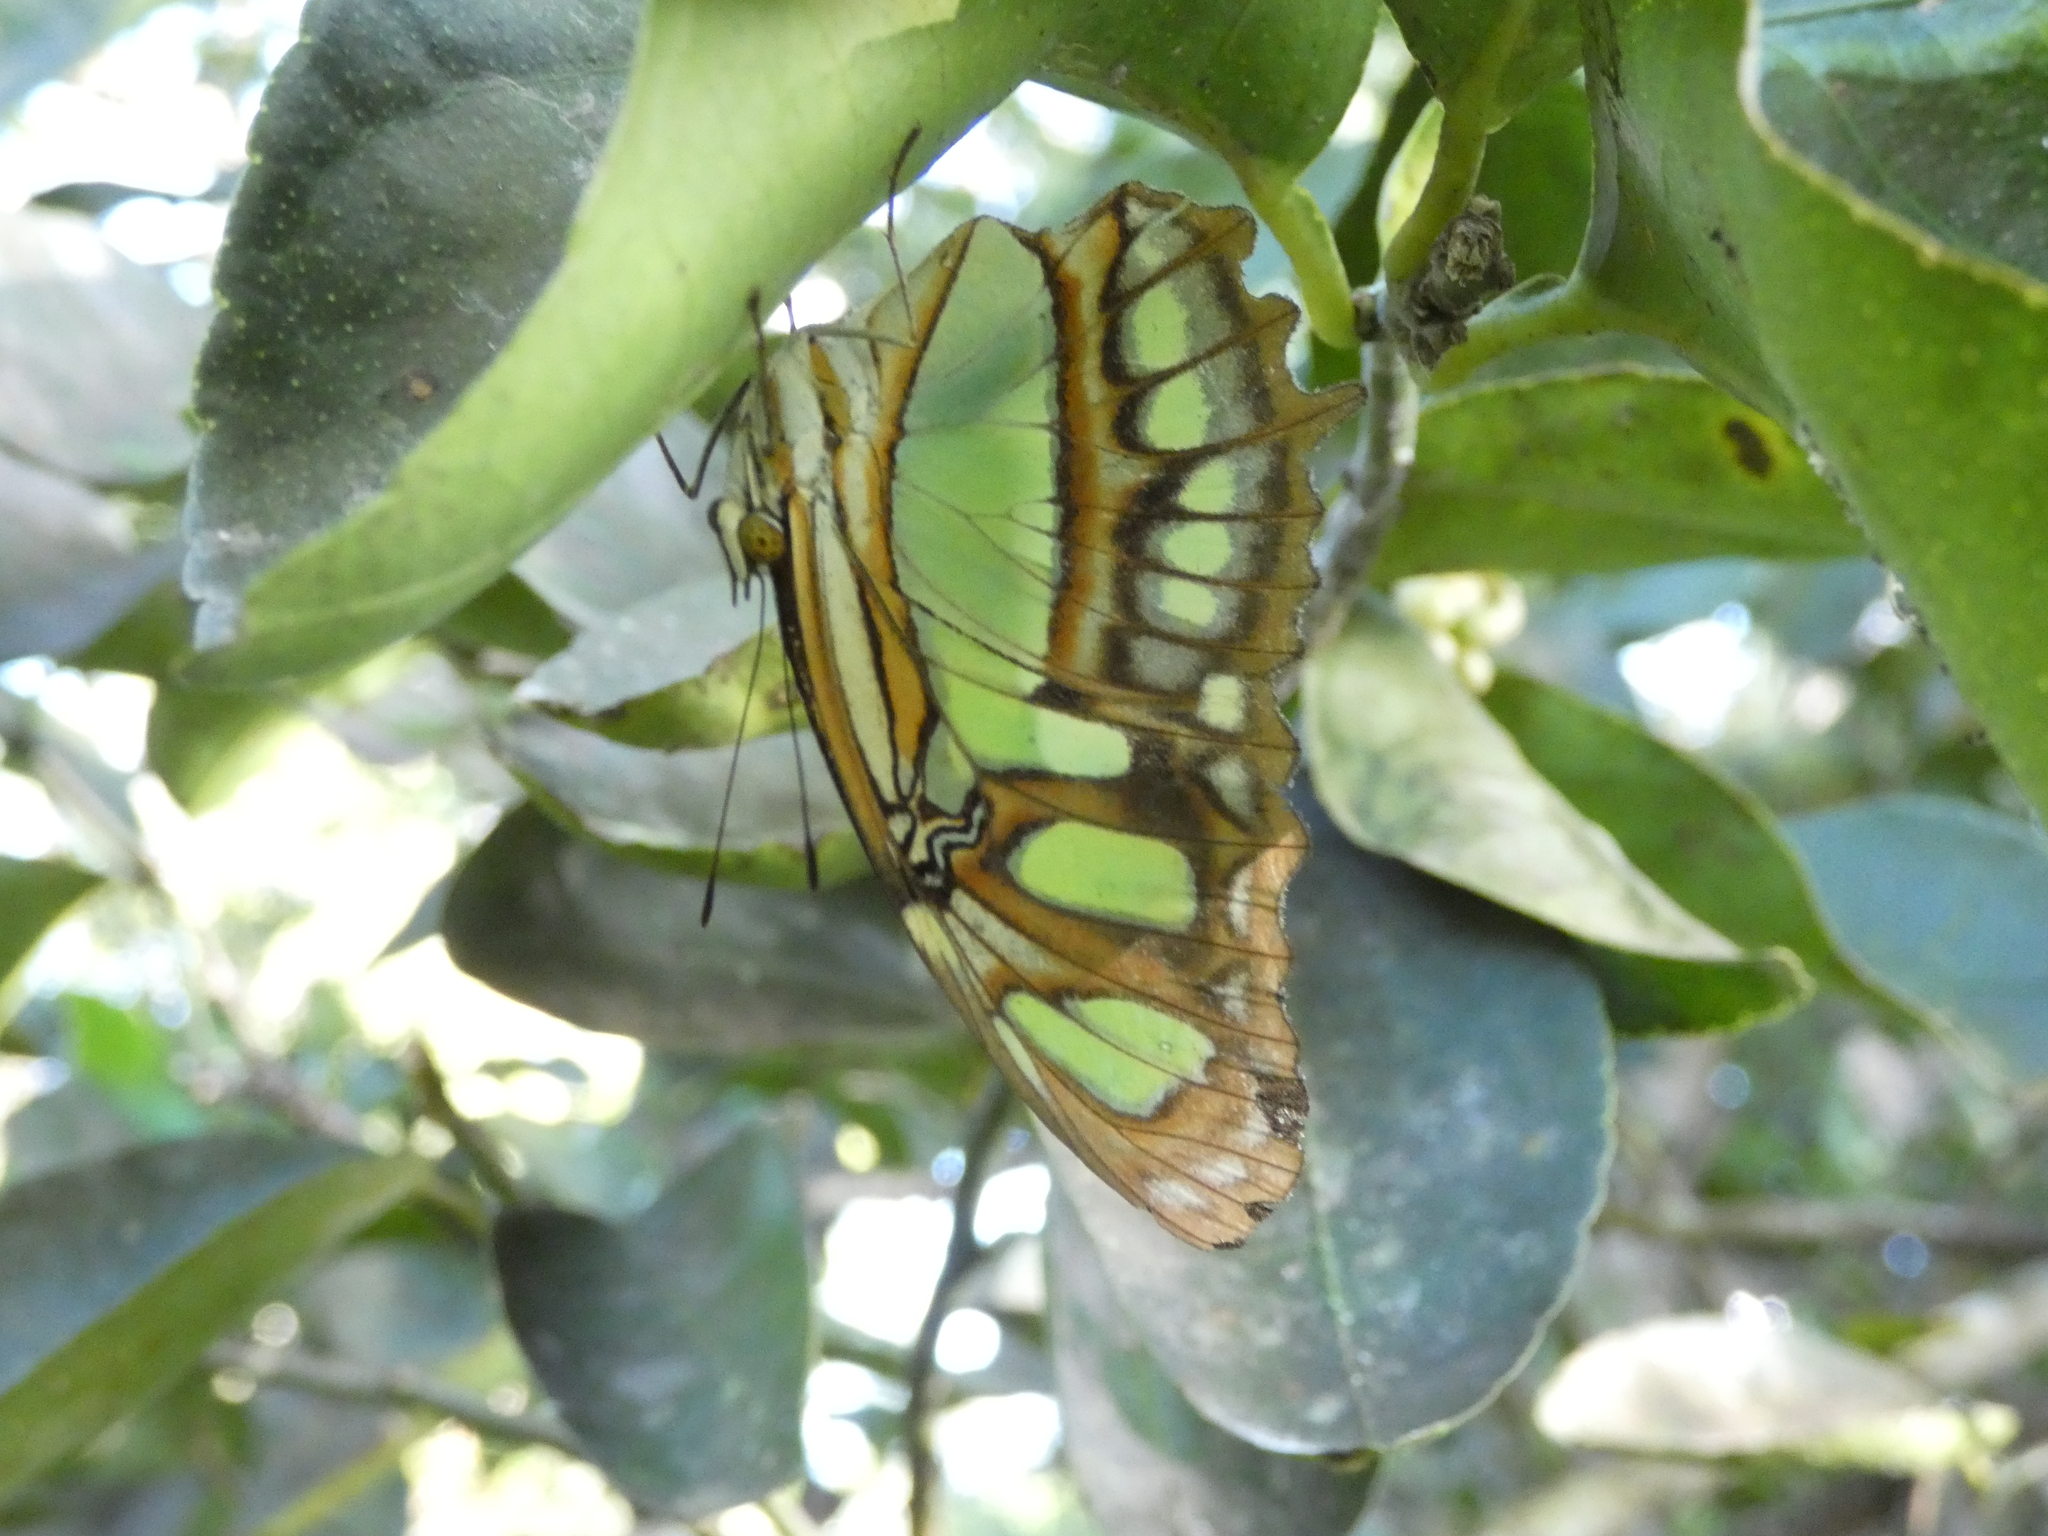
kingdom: Animalia
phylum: Arthropoda
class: Insecta
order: Lepidoptera
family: Nymphalidae
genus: Siproeta
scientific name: Siproeta stelenes
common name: Malachite
